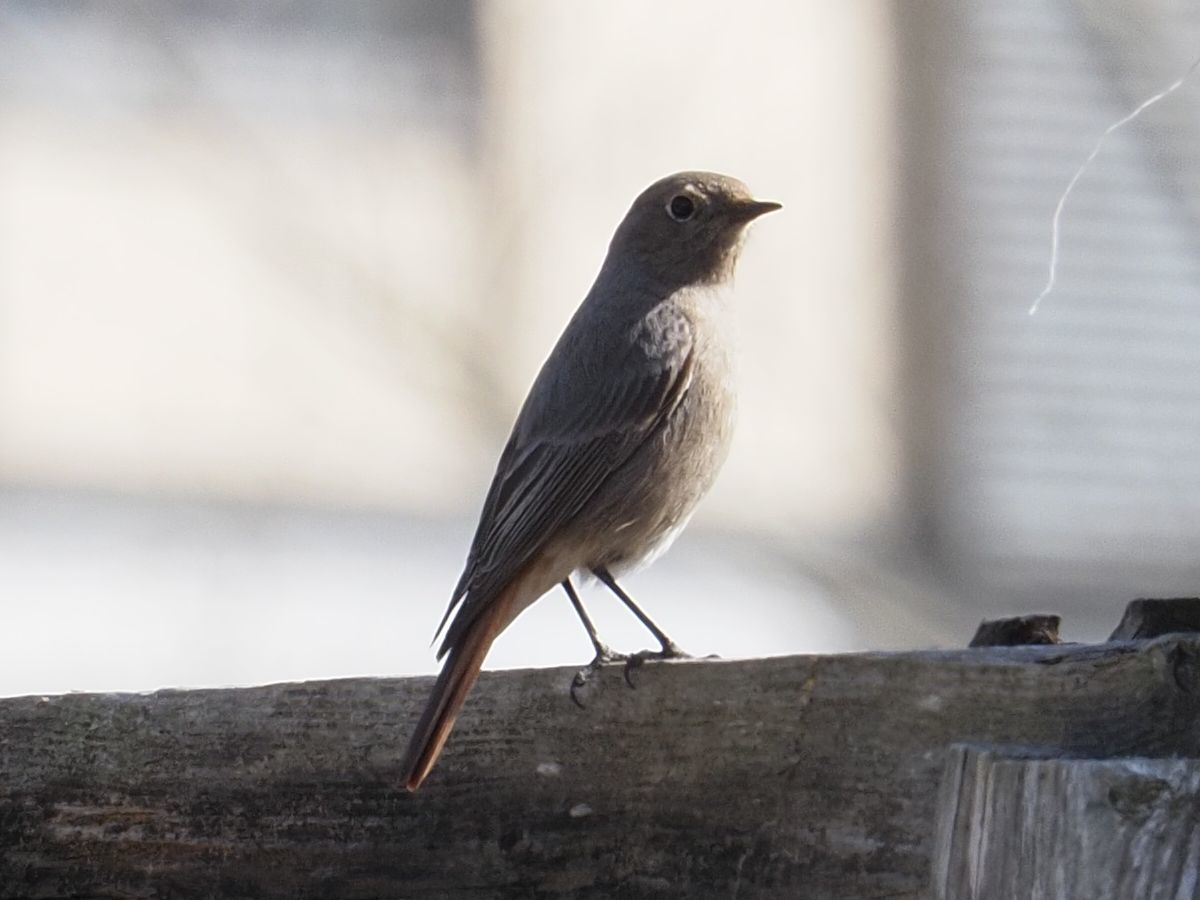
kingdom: Animalia
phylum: Chordata
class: Aves
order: Passeriformes
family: Muscicapidae
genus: Phoenicurus
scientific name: Phoenicurus ochruros
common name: Black redstart
